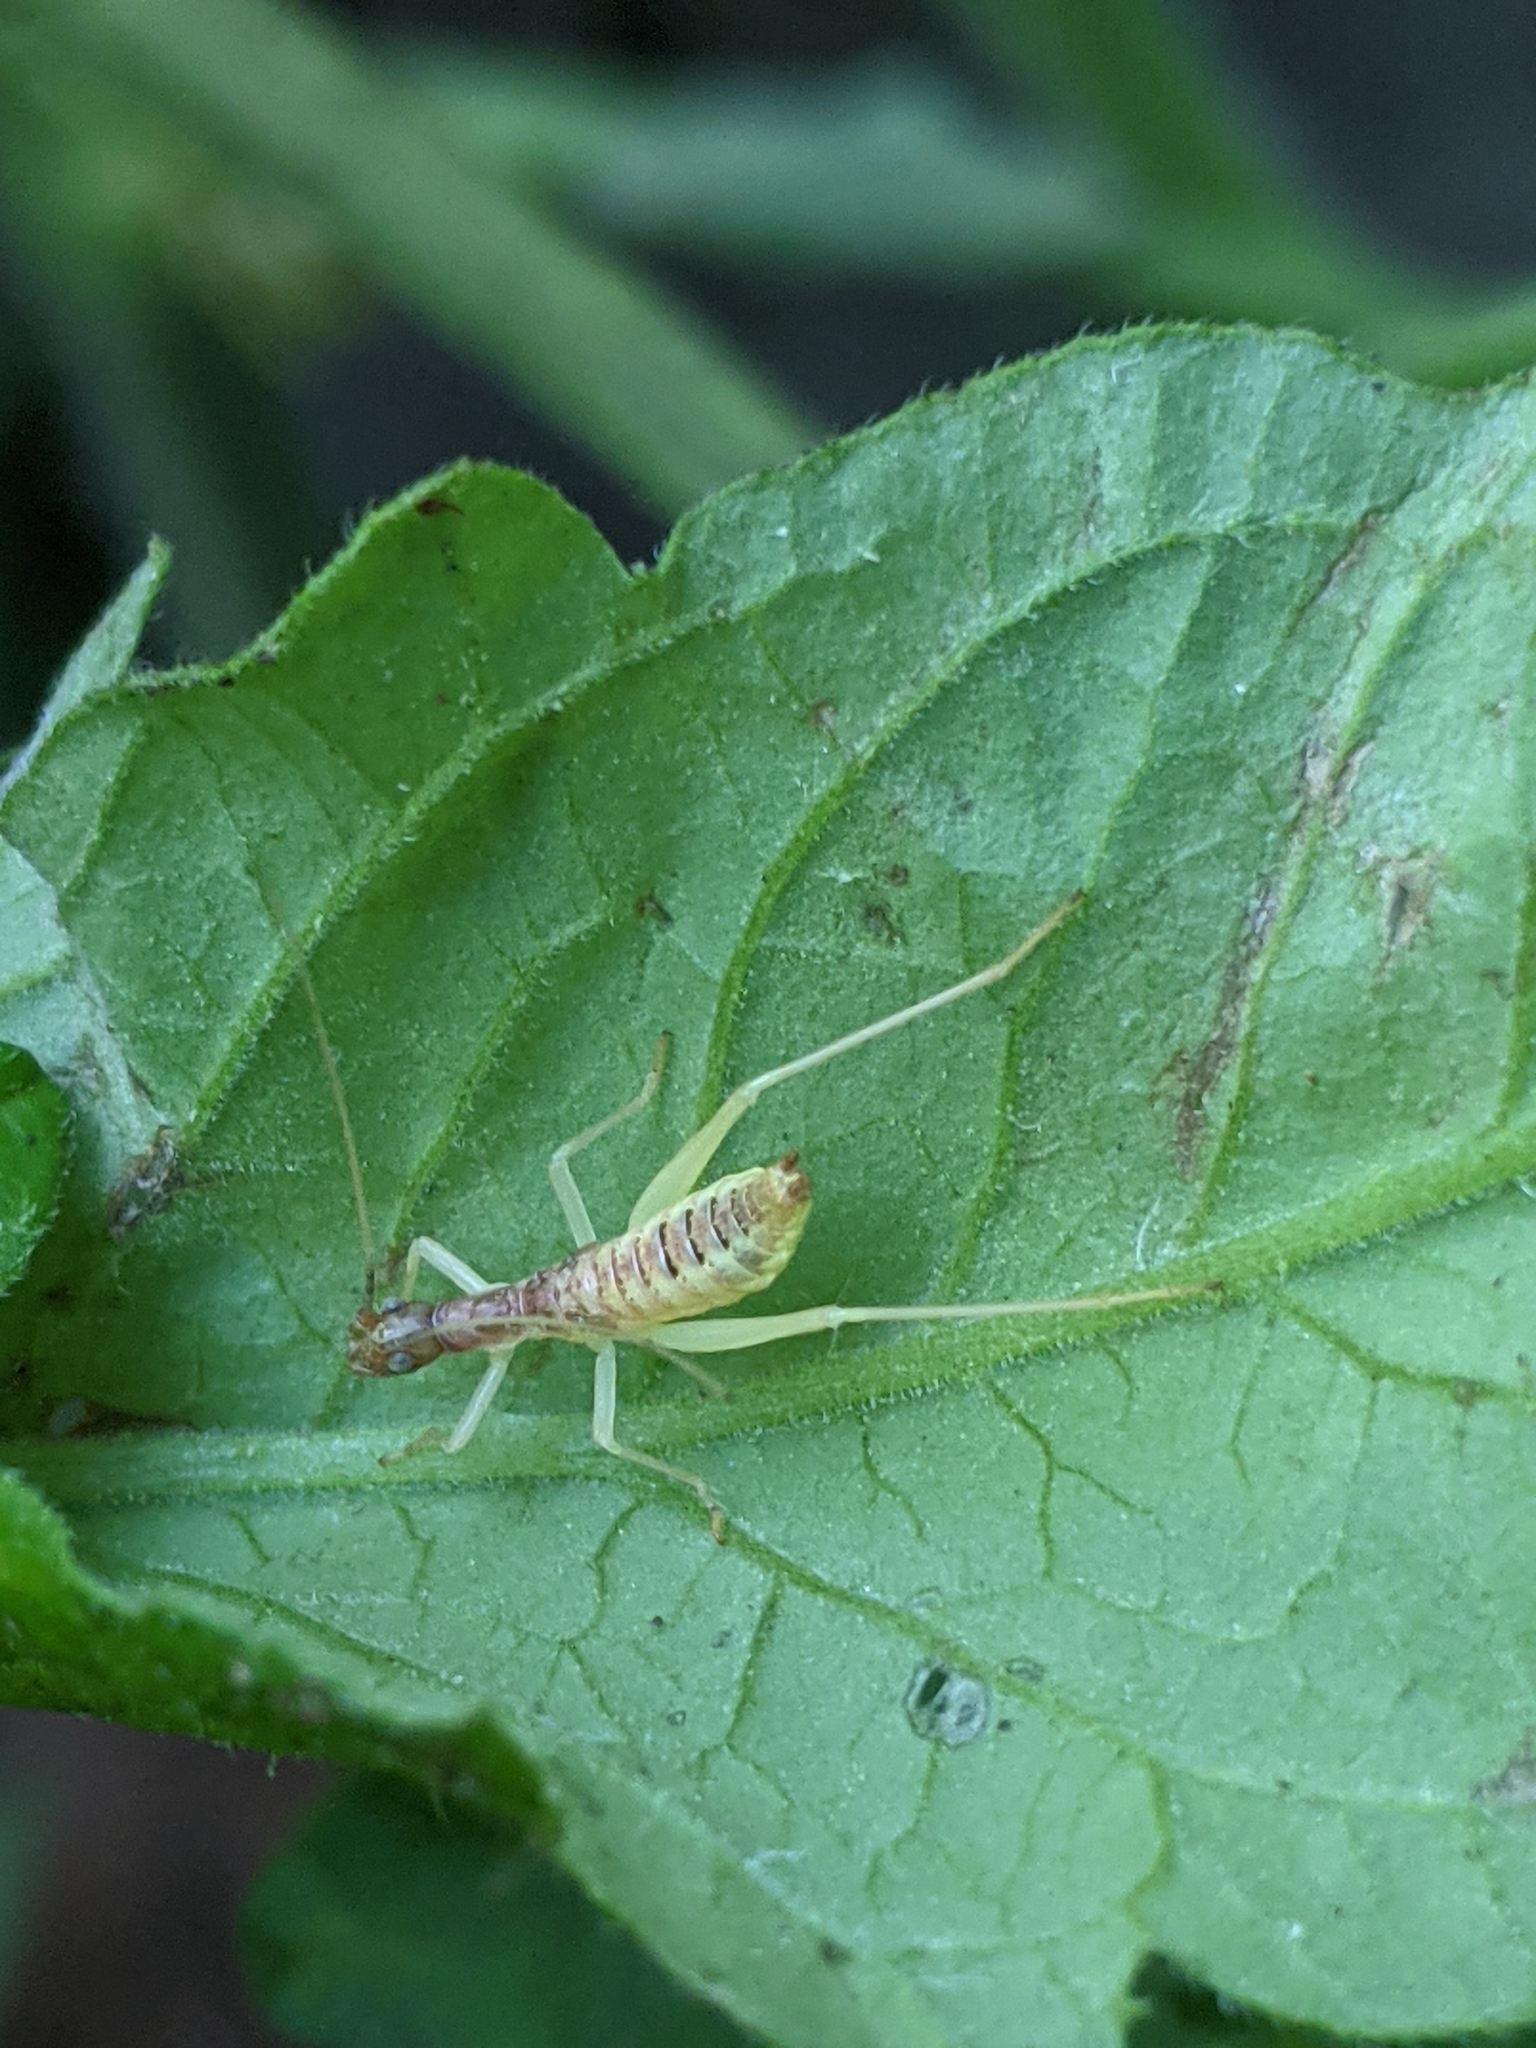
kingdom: Animalia
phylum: Arthropoda
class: Insecta
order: Orthoptera
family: Gryllidae
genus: Neoxabea
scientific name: Neoxabea bipunctata
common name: Two-spotted tree cricket
